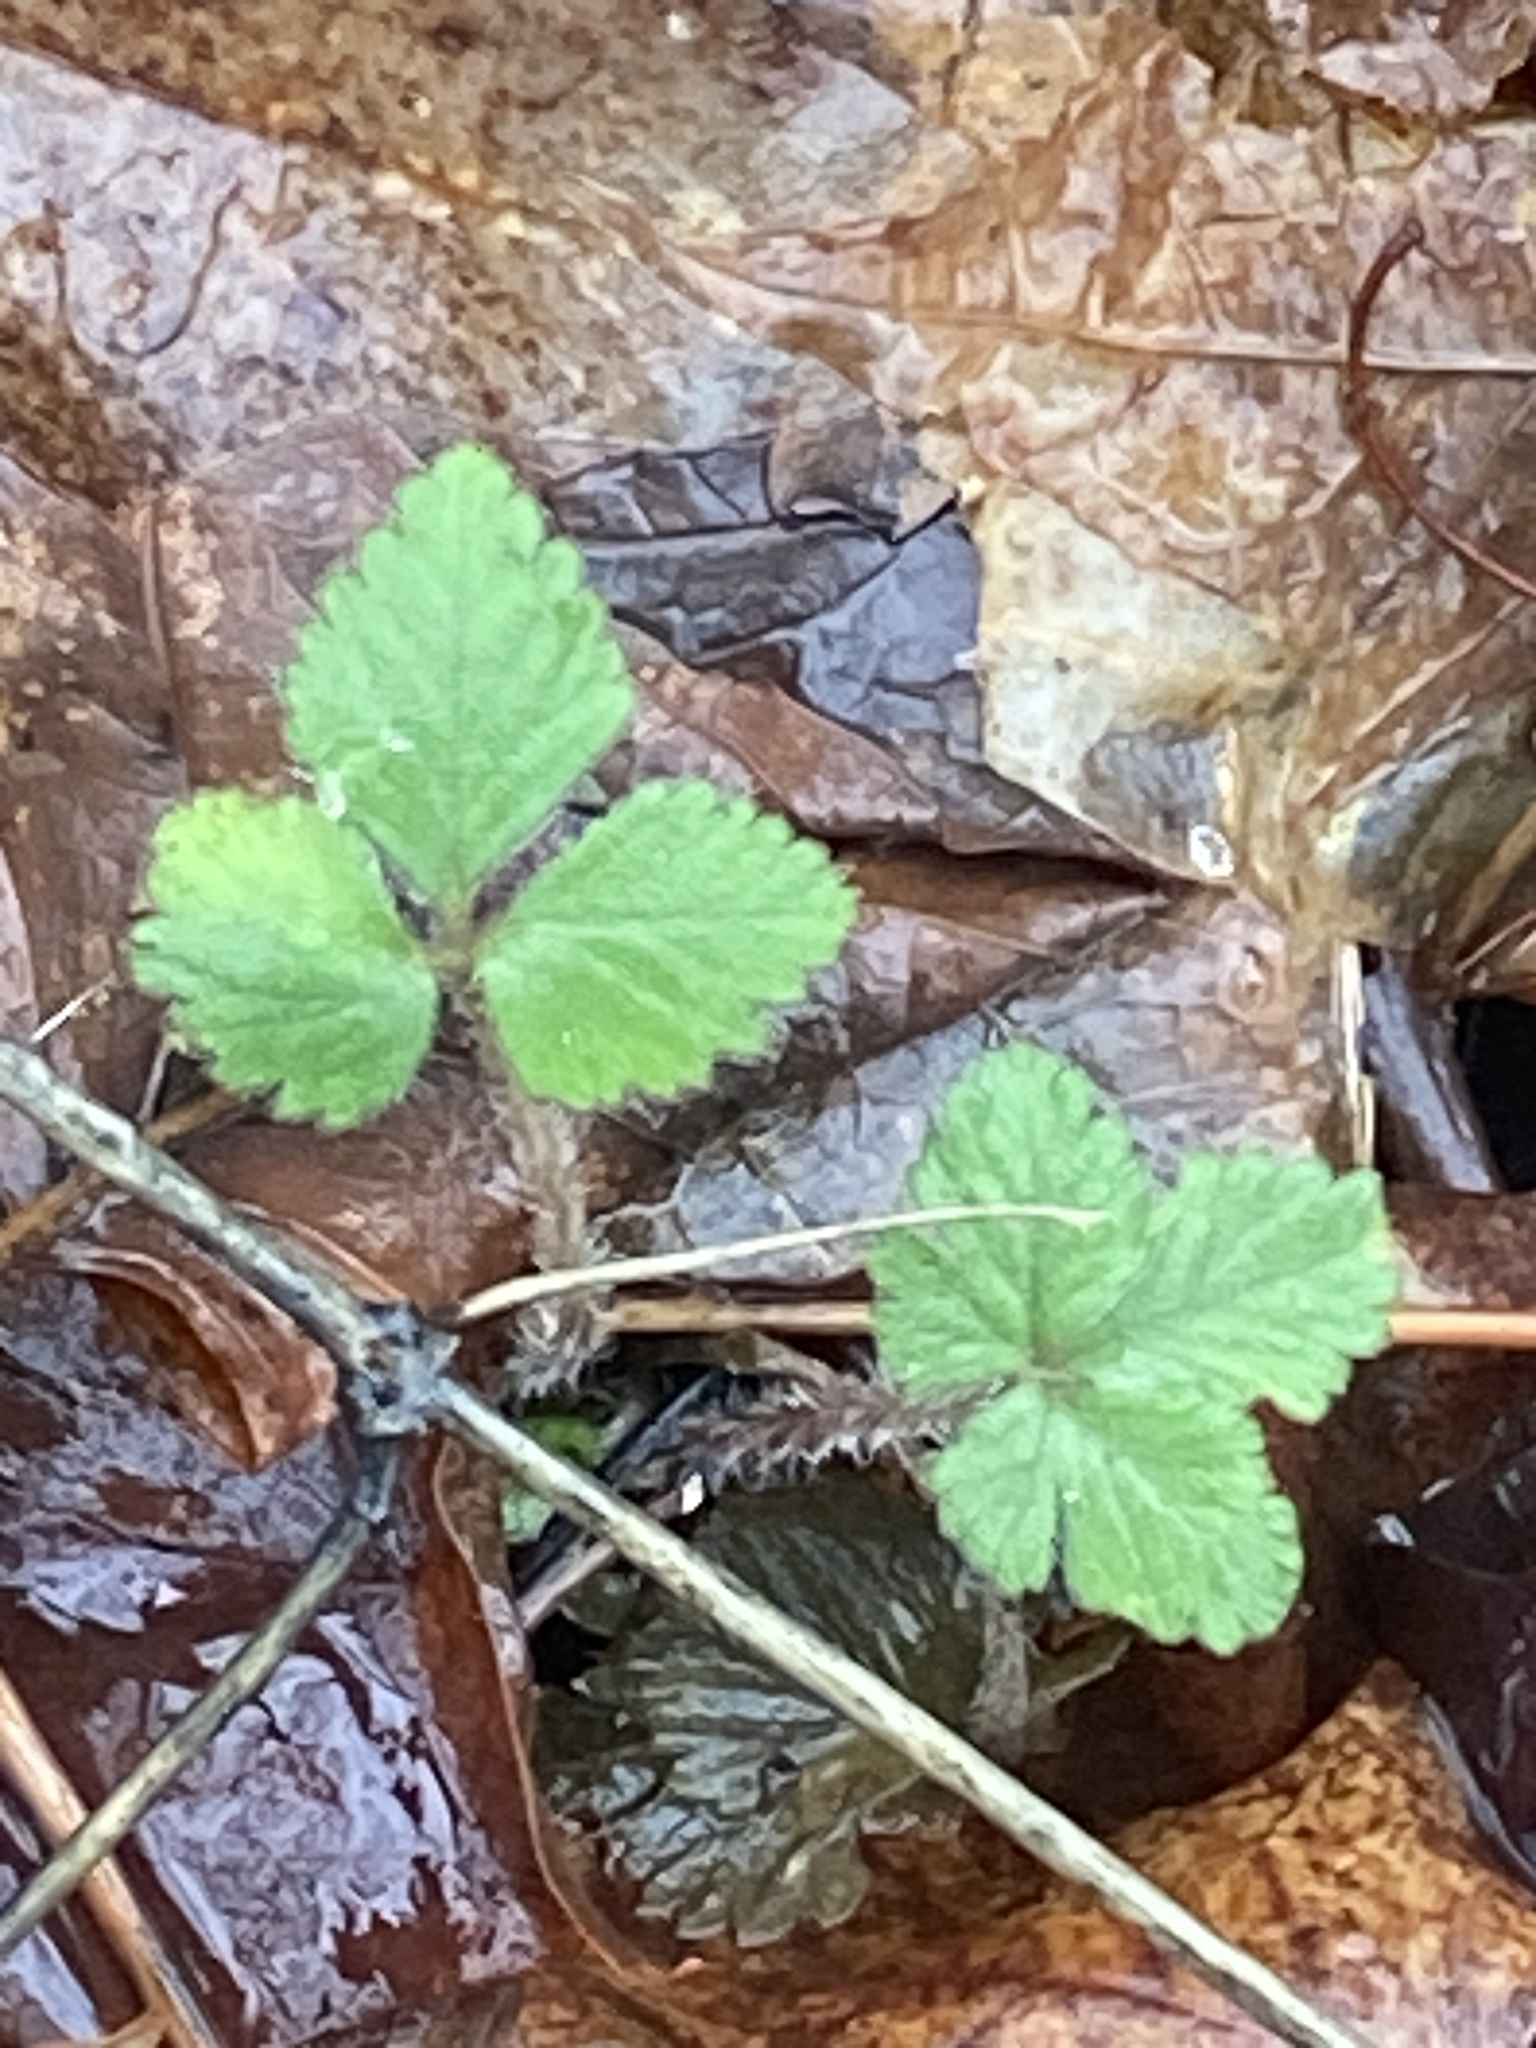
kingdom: Plantae
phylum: Tracheophyta
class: Magnoliopsida
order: Rosales
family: Rosaceae
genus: Potentilla
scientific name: Potentilla indica
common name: Yellow-flowered strawberry
